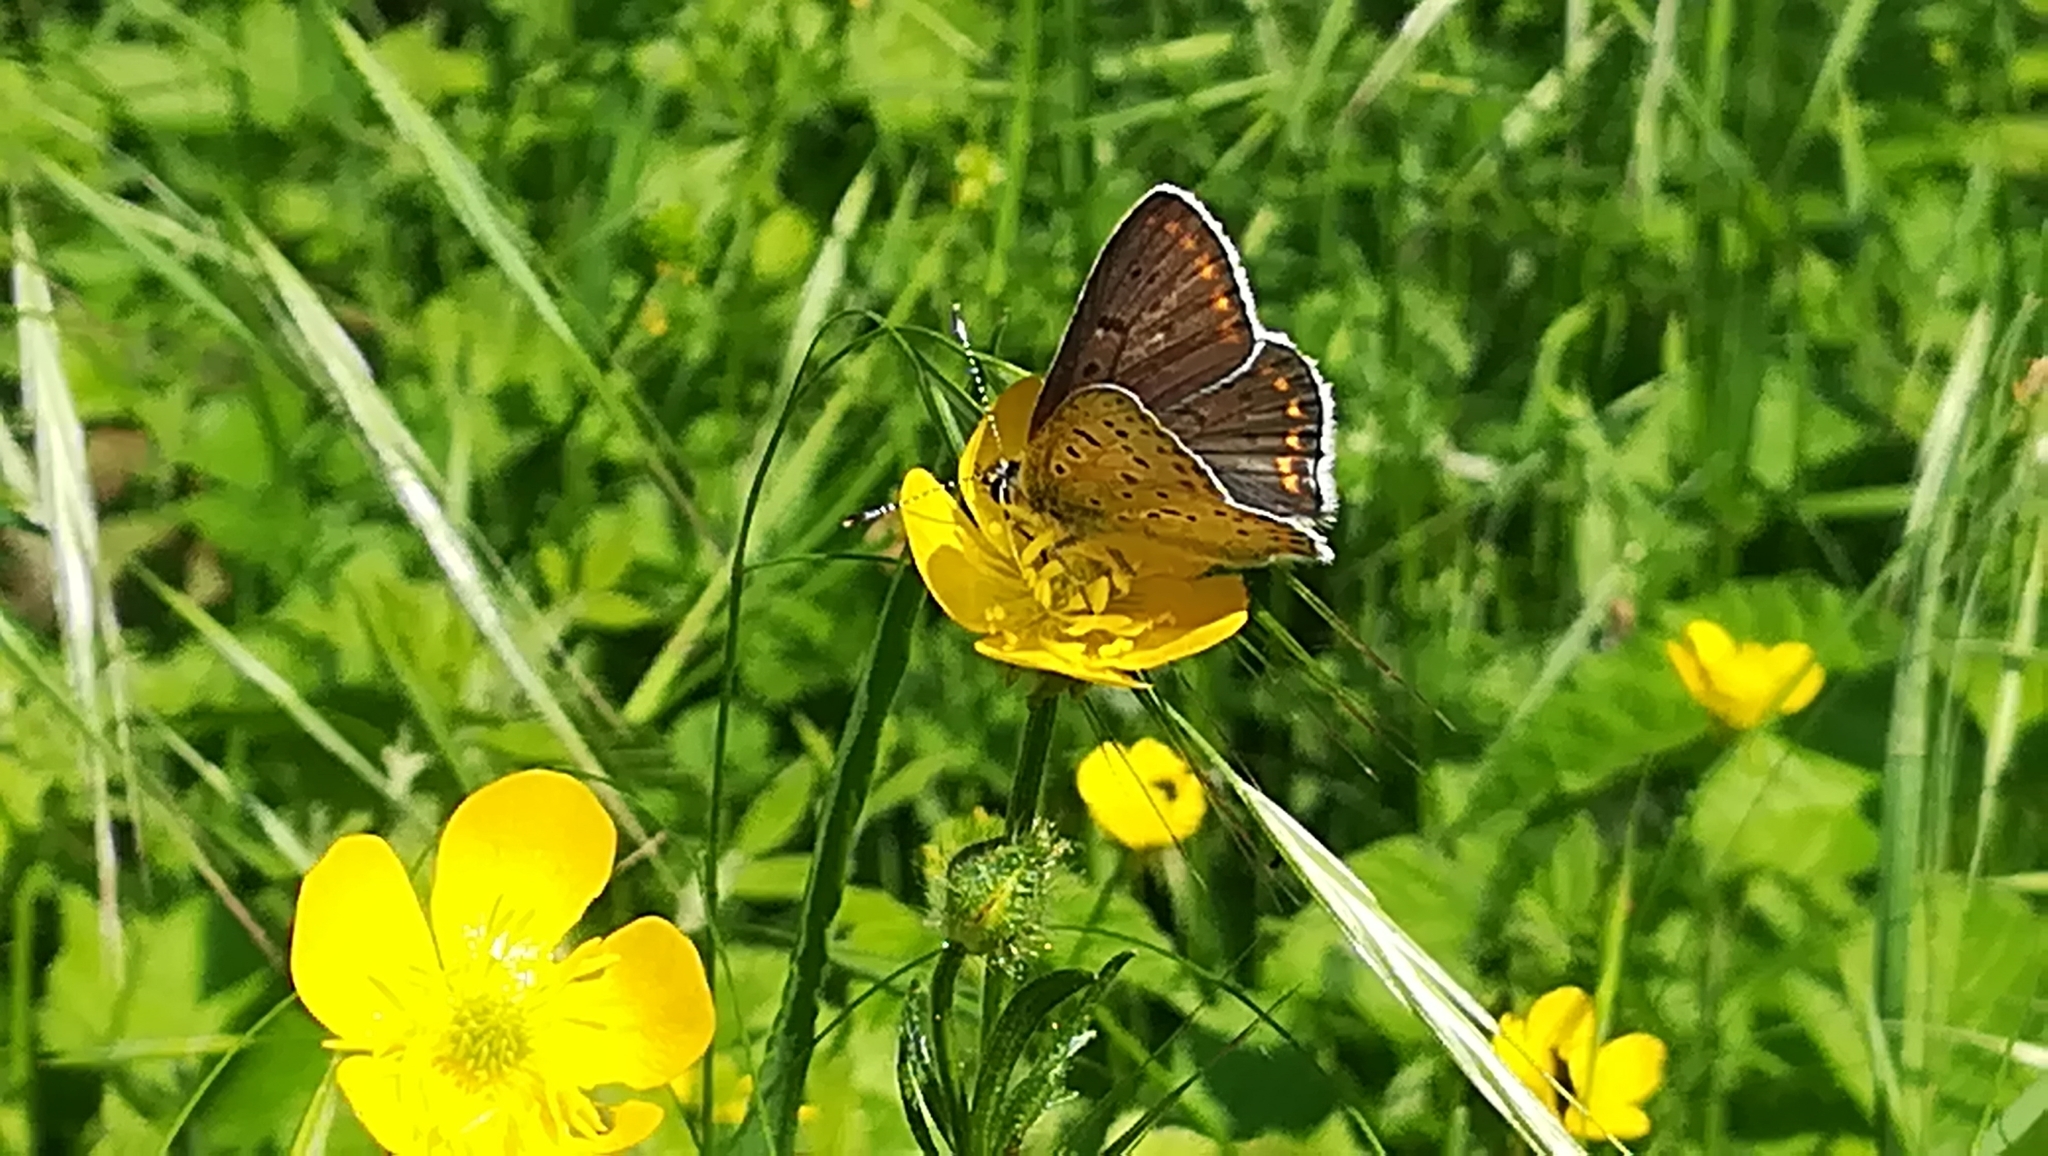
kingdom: Animalia
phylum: Arthropoda
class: Insecta
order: Lepidoptera
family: Lycaenidae
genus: Loweia
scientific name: Loweia tityrus
